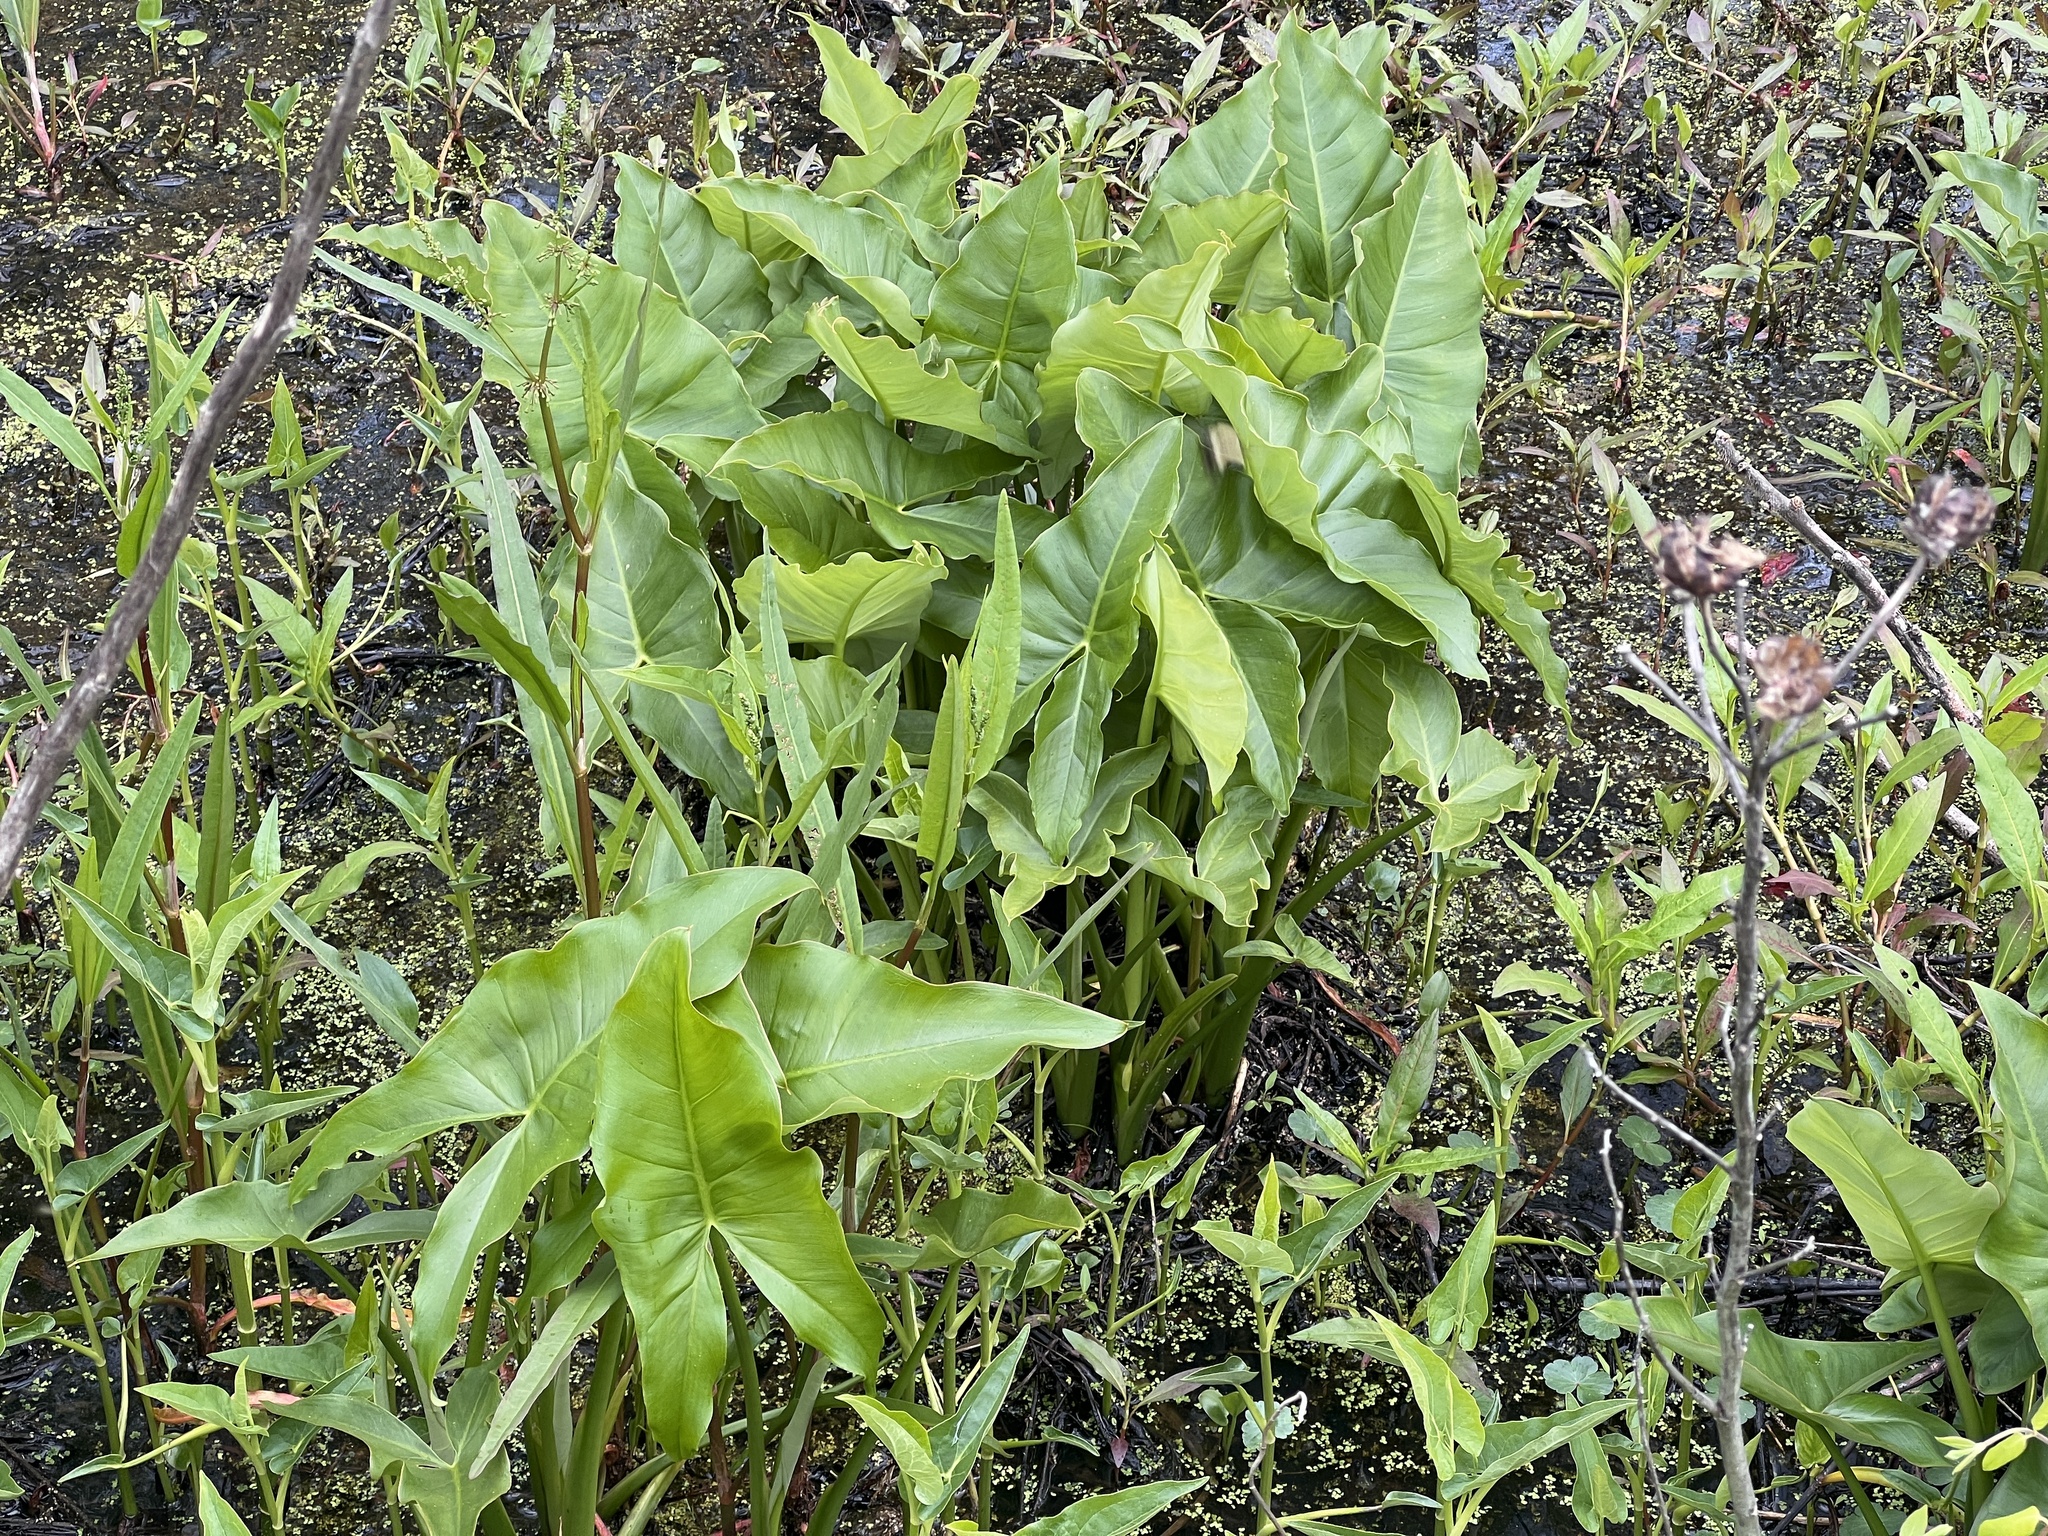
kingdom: Plantae
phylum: Tracheophyta
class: Liliopsida
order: Alismatales
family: Araceae
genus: Peltandra
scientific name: Peltandra virginica
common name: Arrow arum
